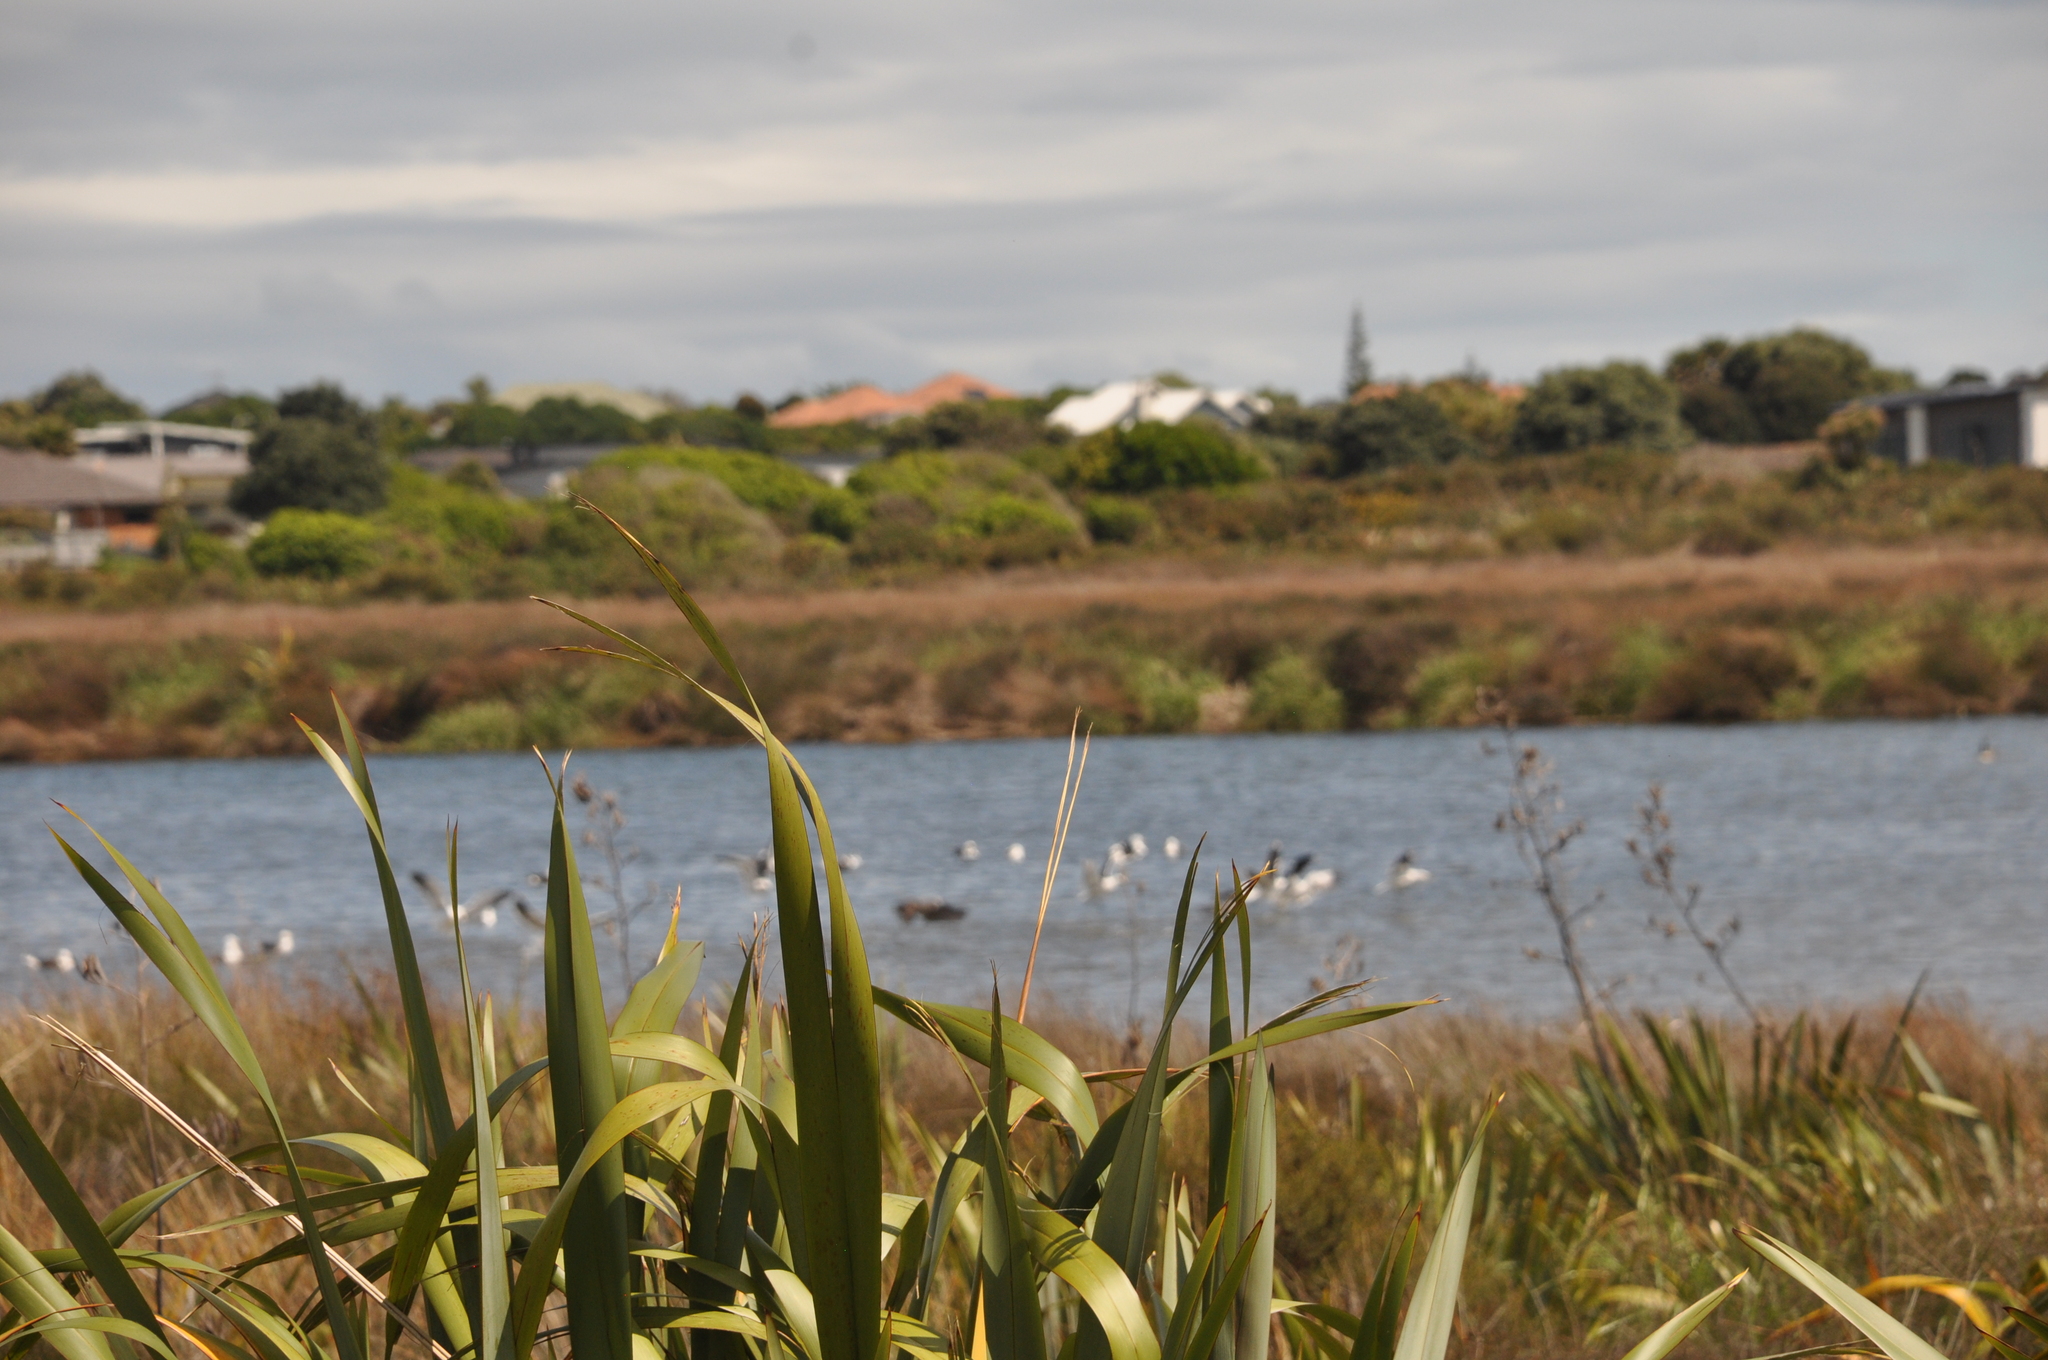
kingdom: Plantae
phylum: Tracheophyta
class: Liliopsida
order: Asparagales
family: Asphodelaceae
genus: Phormium
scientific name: Phormium tenax
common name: New zealand flax
